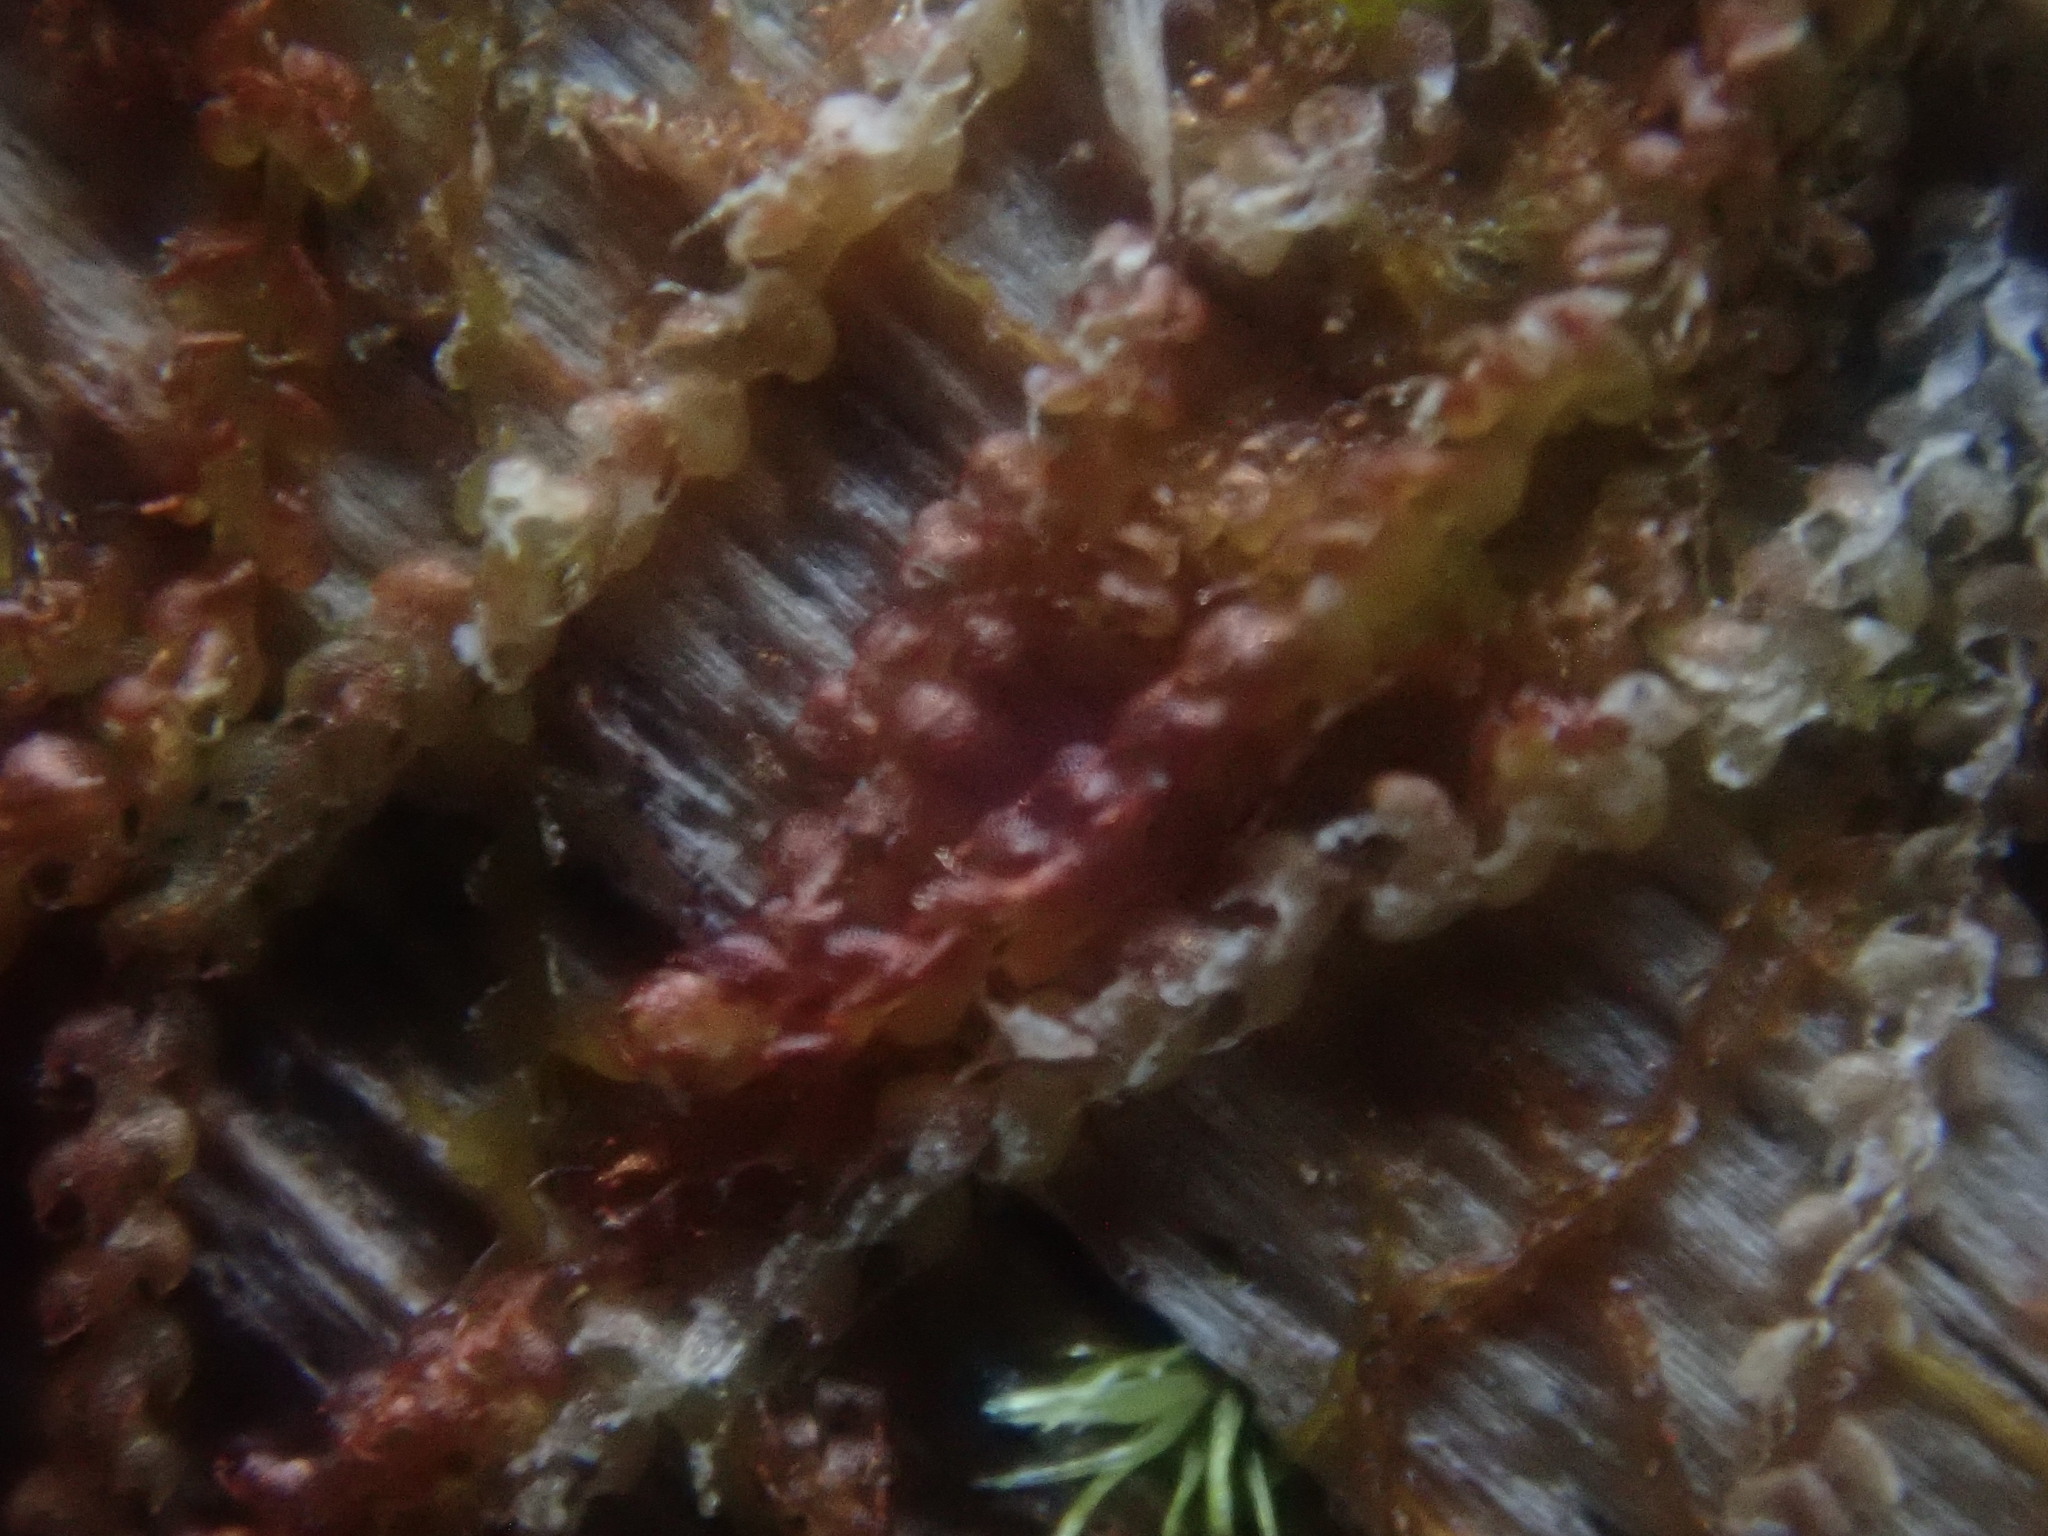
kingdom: Plantae
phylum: Marchantiophyta
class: Jungermanniopsida
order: Jungermanniales
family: Cephaloziaceae
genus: Nowellia
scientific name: Nowellia curvifolia
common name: Wood rustwort
